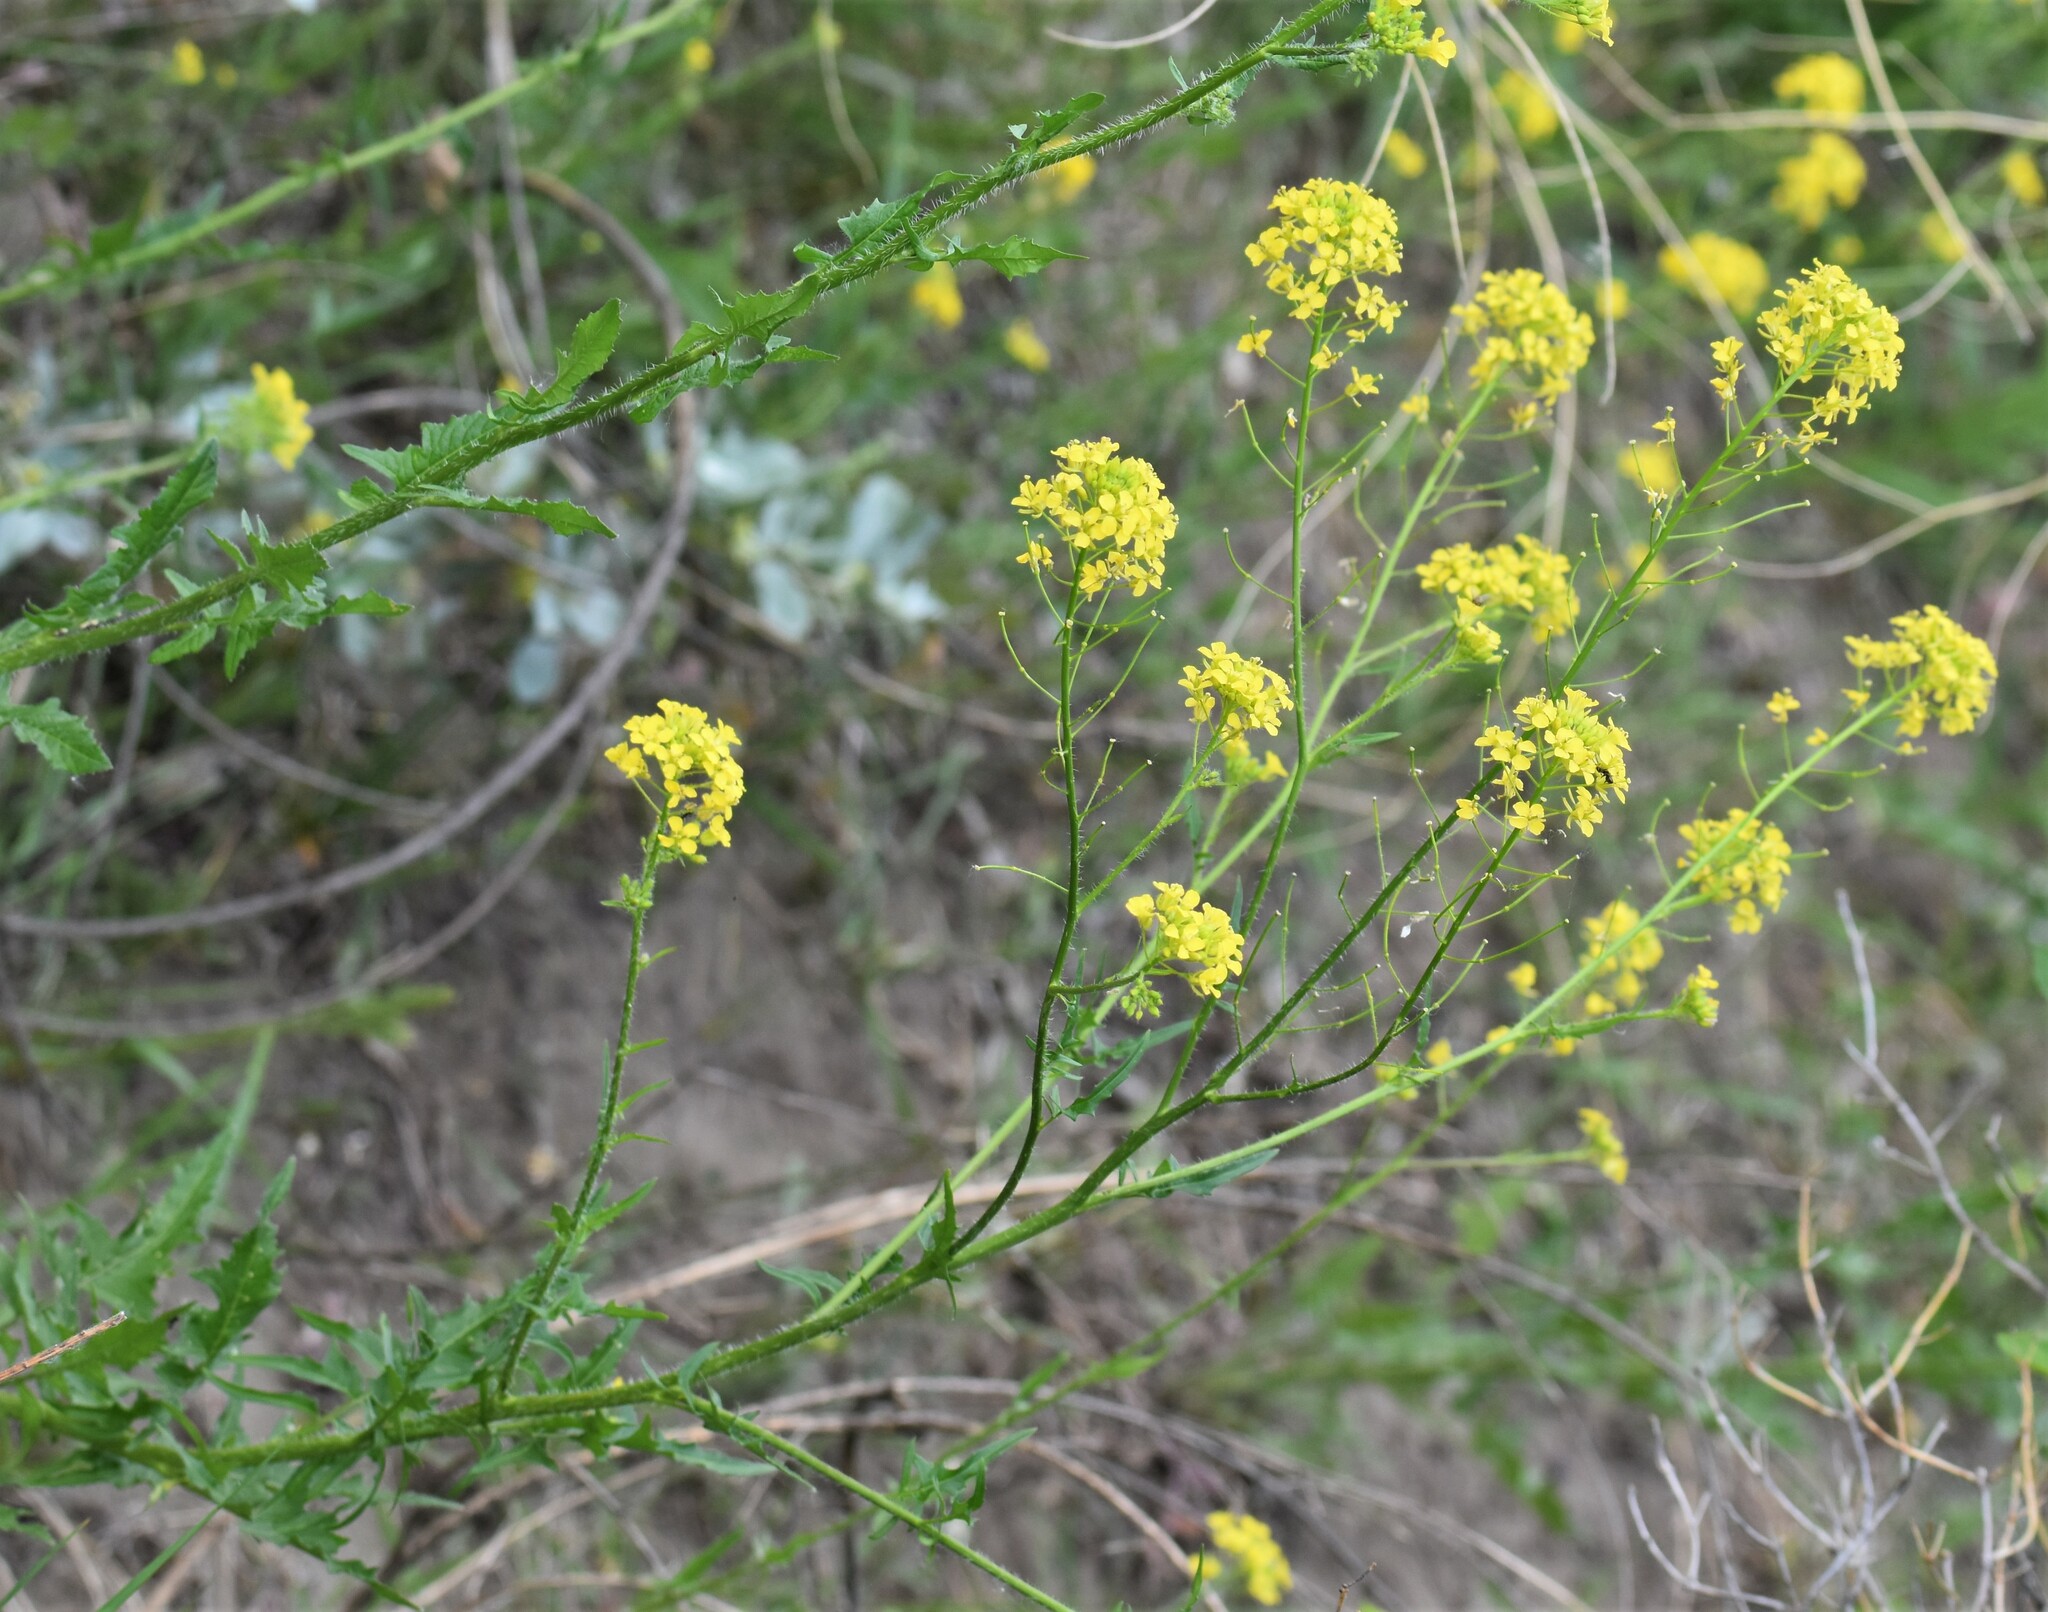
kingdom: Plantae
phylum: Tracheophyta
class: Magnoliopsida
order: Brassicales
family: Brassicaceae
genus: Sisymbrium
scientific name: Sisymbrium loeselii
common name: False london-rocket
